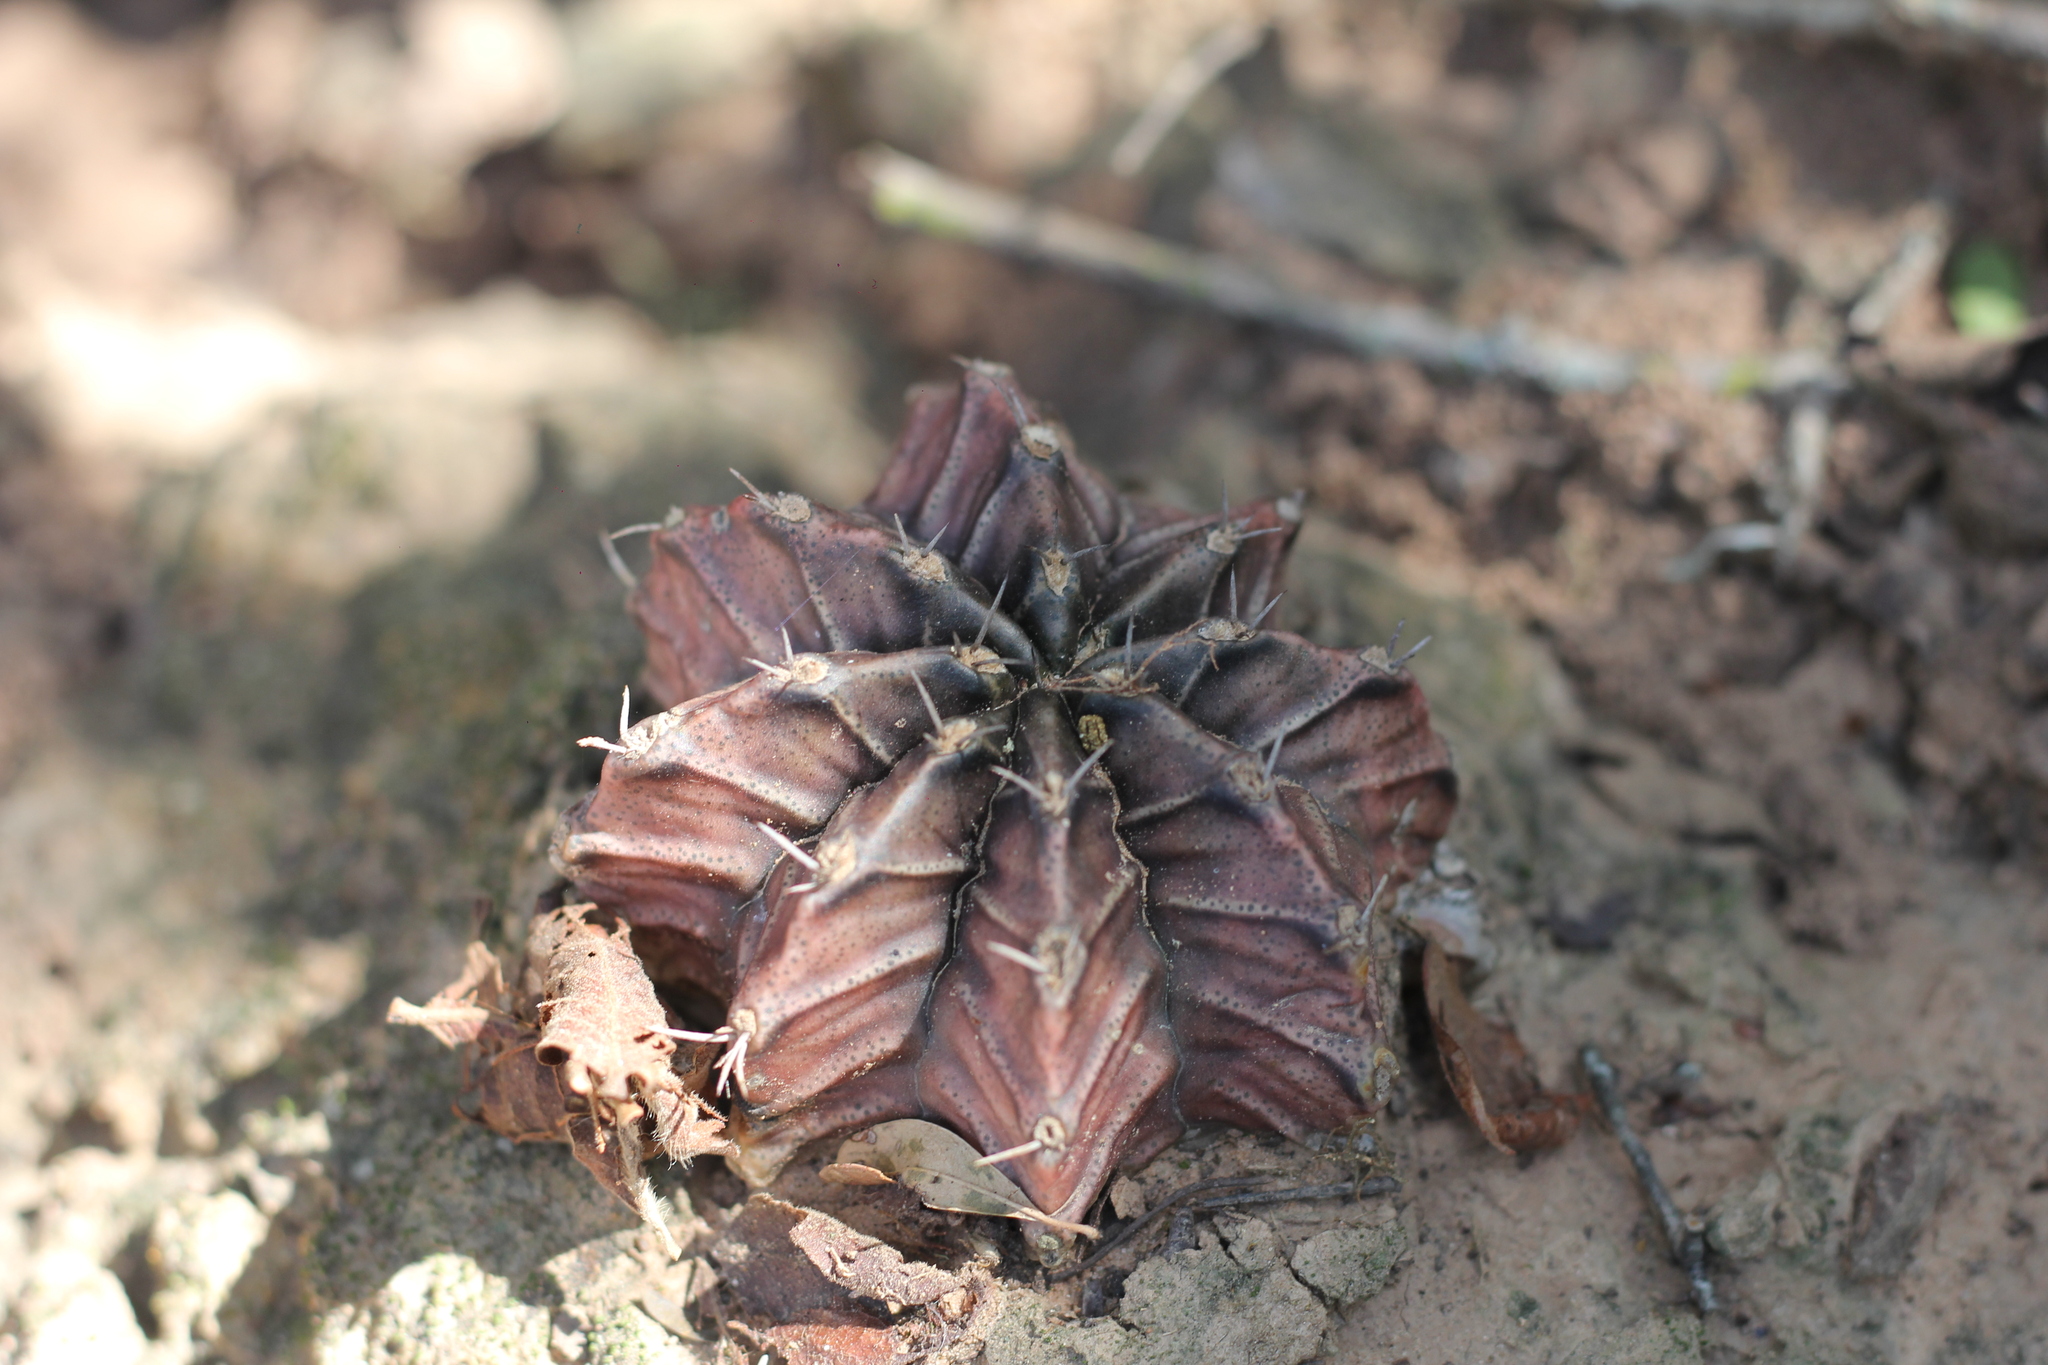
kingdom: Plantae
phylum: Tracheophyta
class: Magnoliopsida
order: Caryophyllales
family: Cactaceae
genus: Gymnocalycium
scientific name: Gymnocalycium mihanovichii
